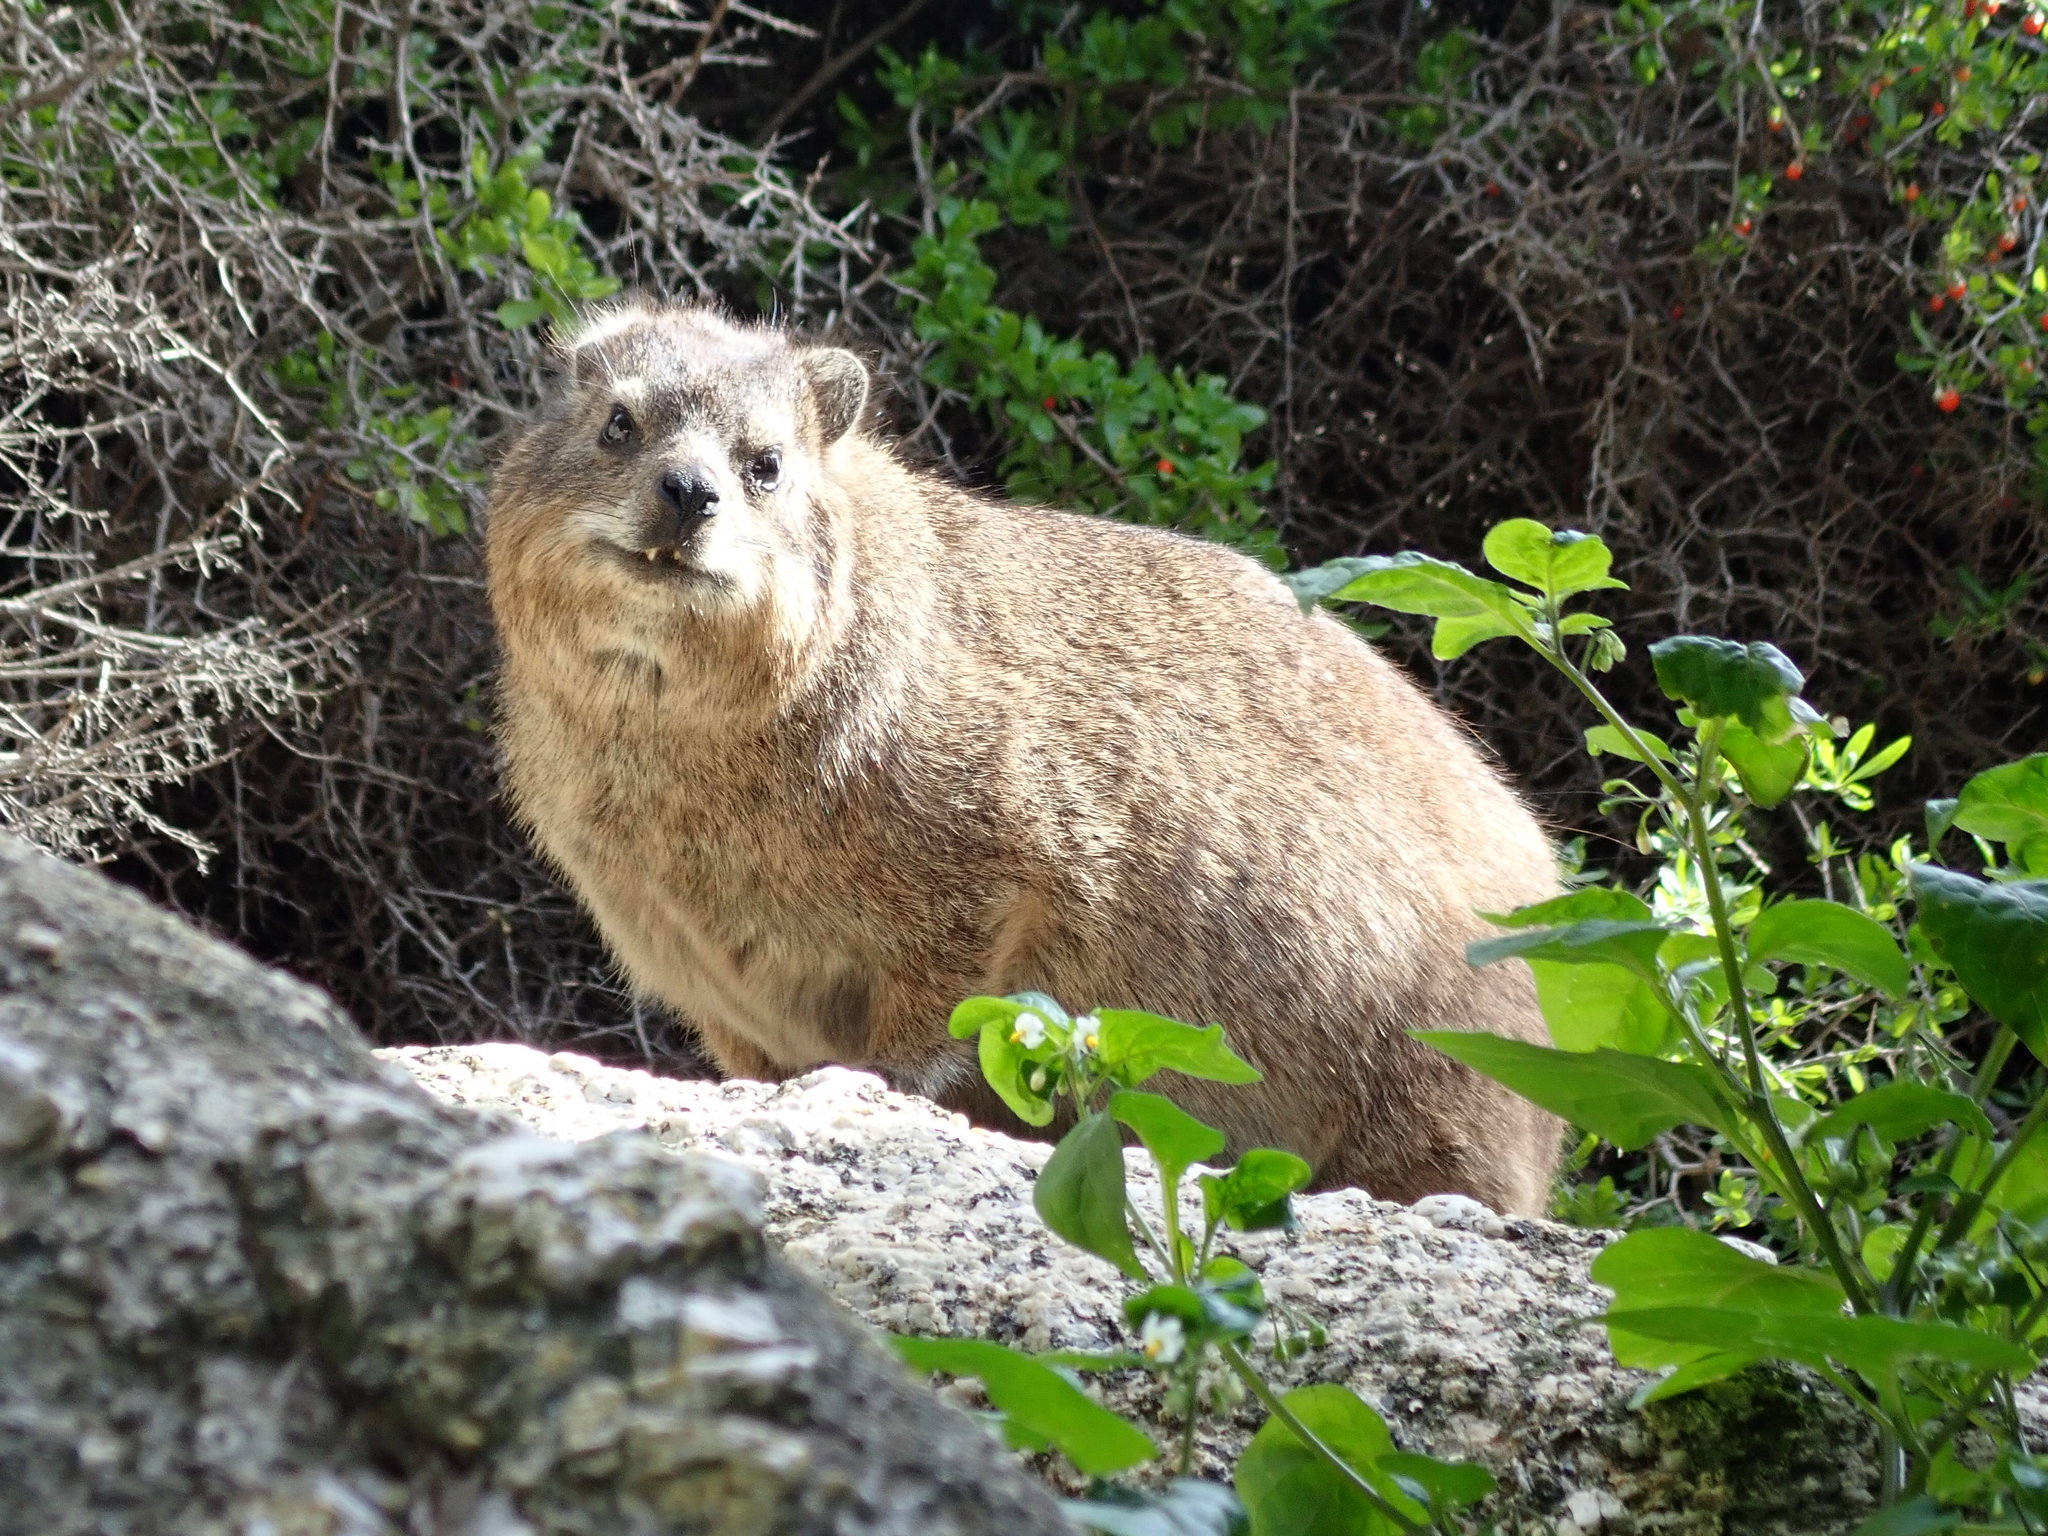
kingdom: Animalia
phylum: Chordata
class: Mammalia
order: Hyracoidea
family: Procaviidae
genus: Procavia
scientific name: Procavia capensis
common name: Rock hyrax
